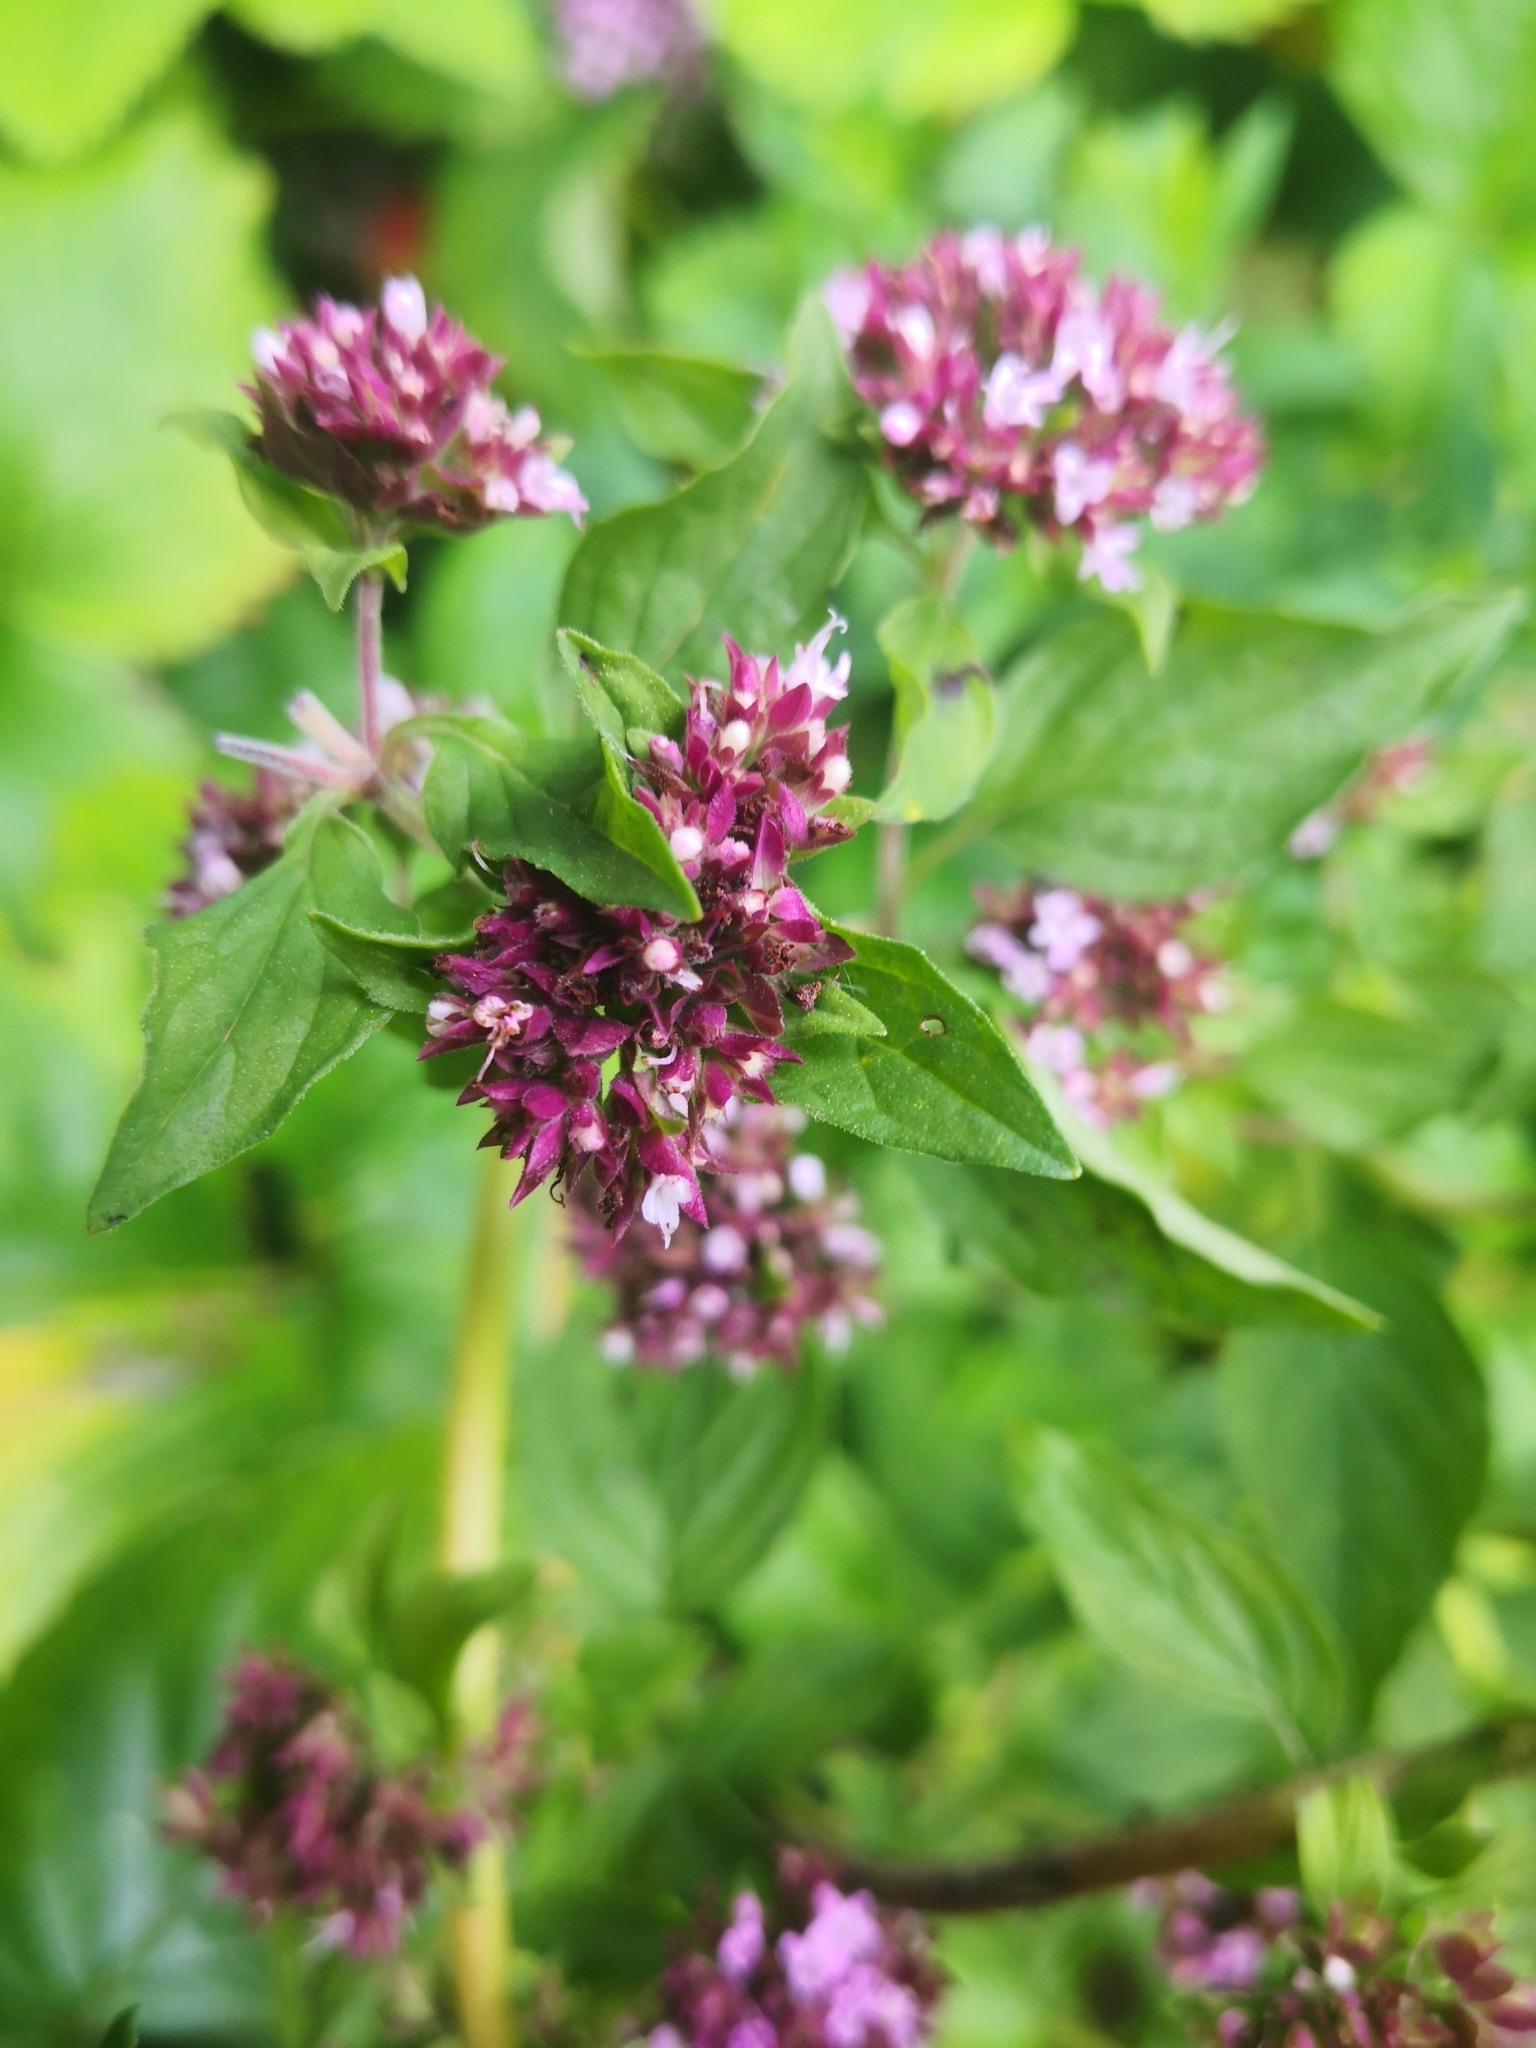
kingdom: Plantae
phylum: Tracheophyta
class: Magnoliopsida
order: Lamiales
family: Lamiaceae
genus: Origanum
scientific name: Origanum vulgare
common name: Wild marjoram
